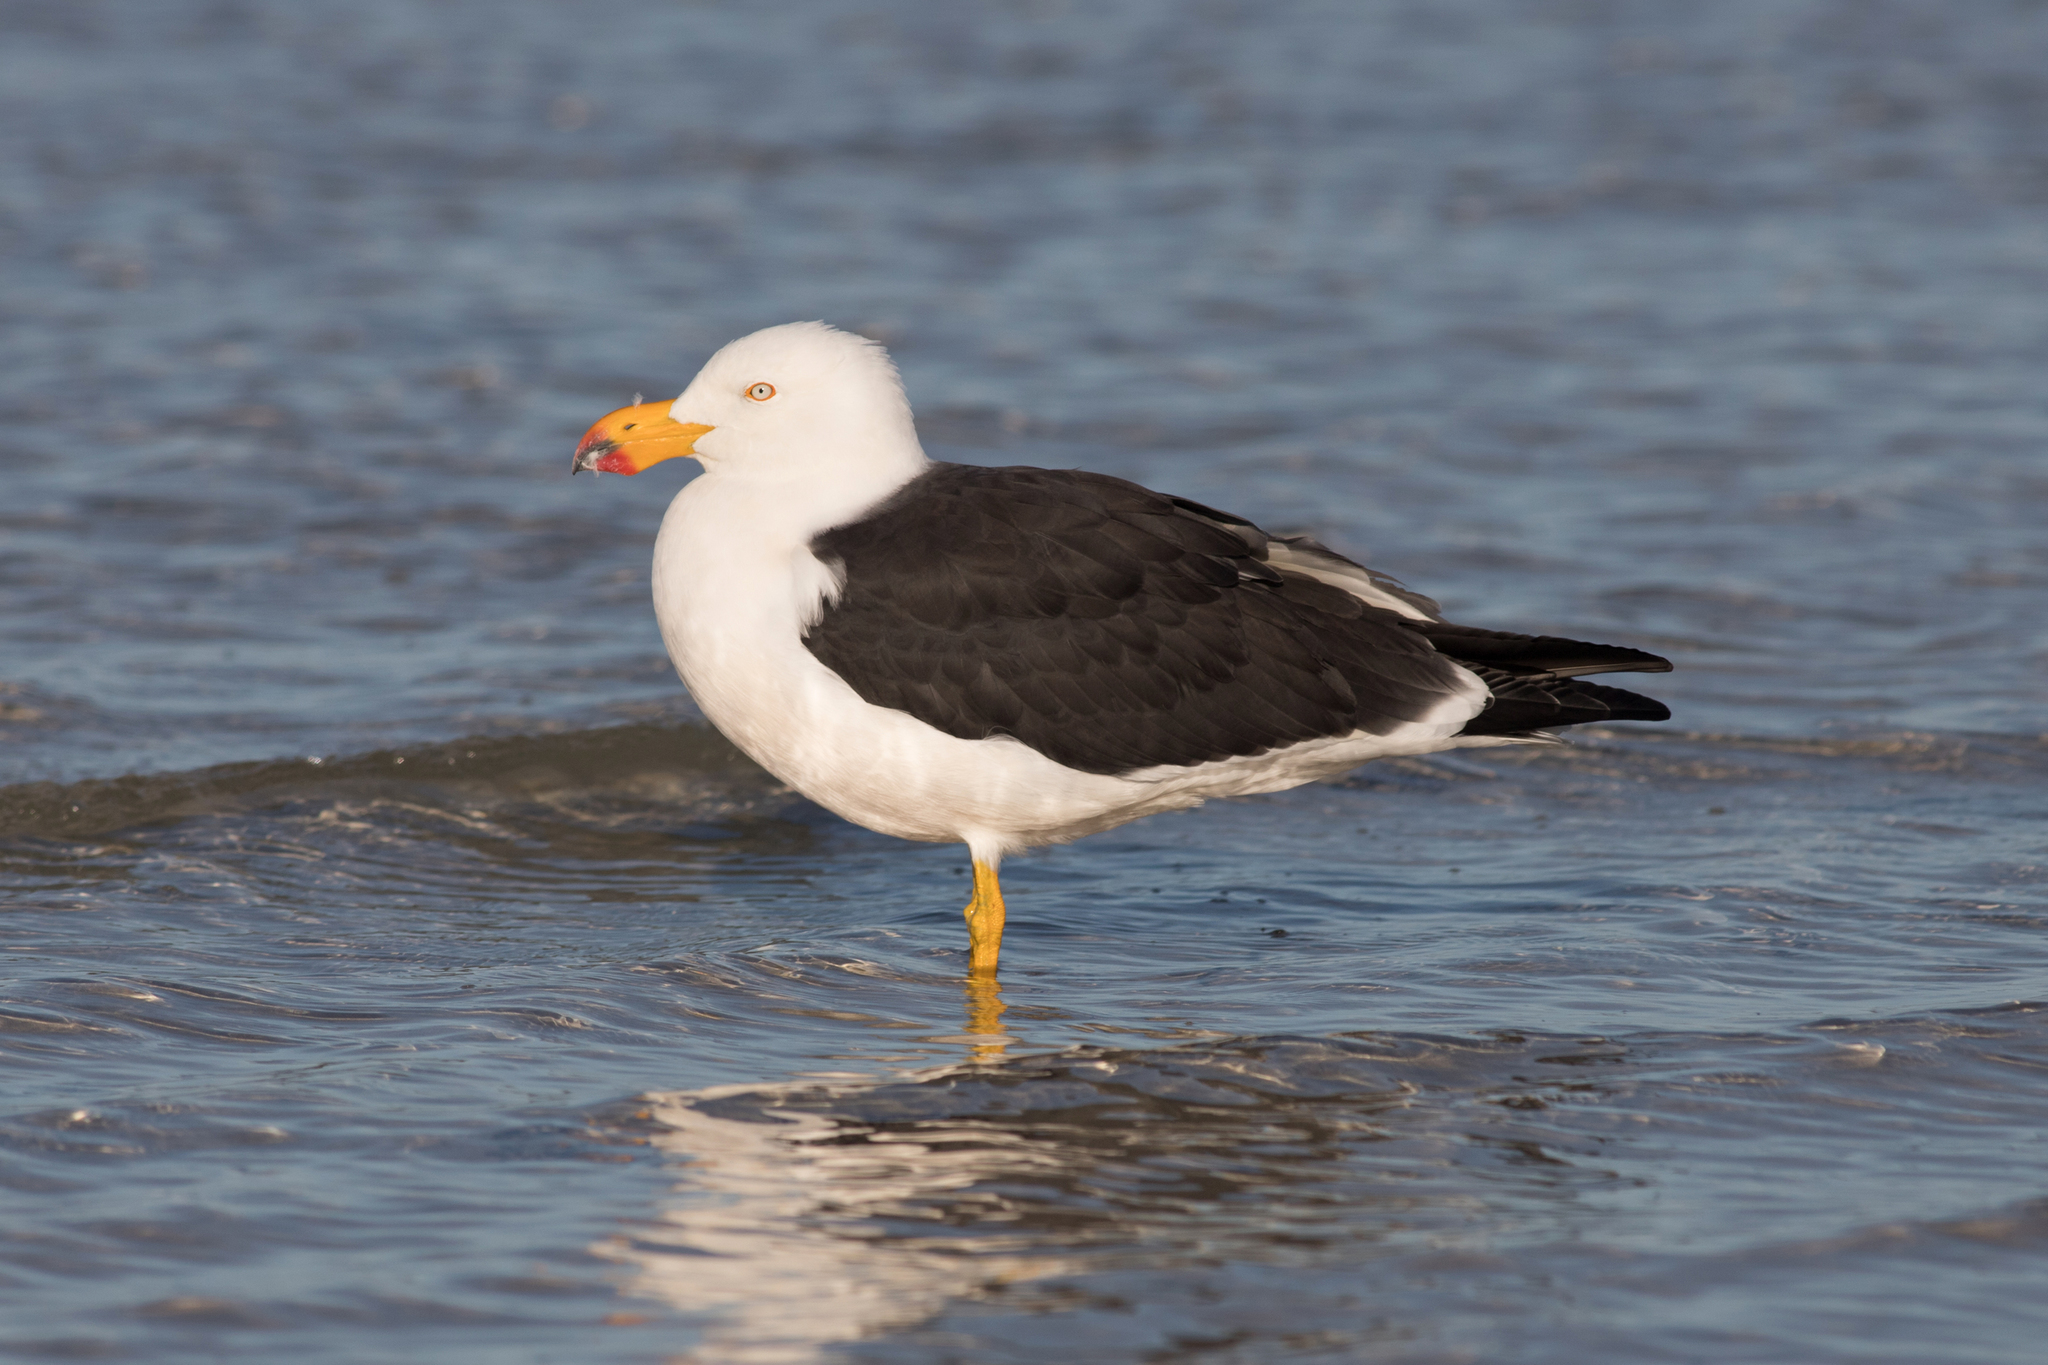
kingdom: Animalia
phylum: Chordata
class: Aves
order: Charadriiformes
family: Laridae
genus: Larus
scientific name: Larus pacificus
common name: Pacific gull
